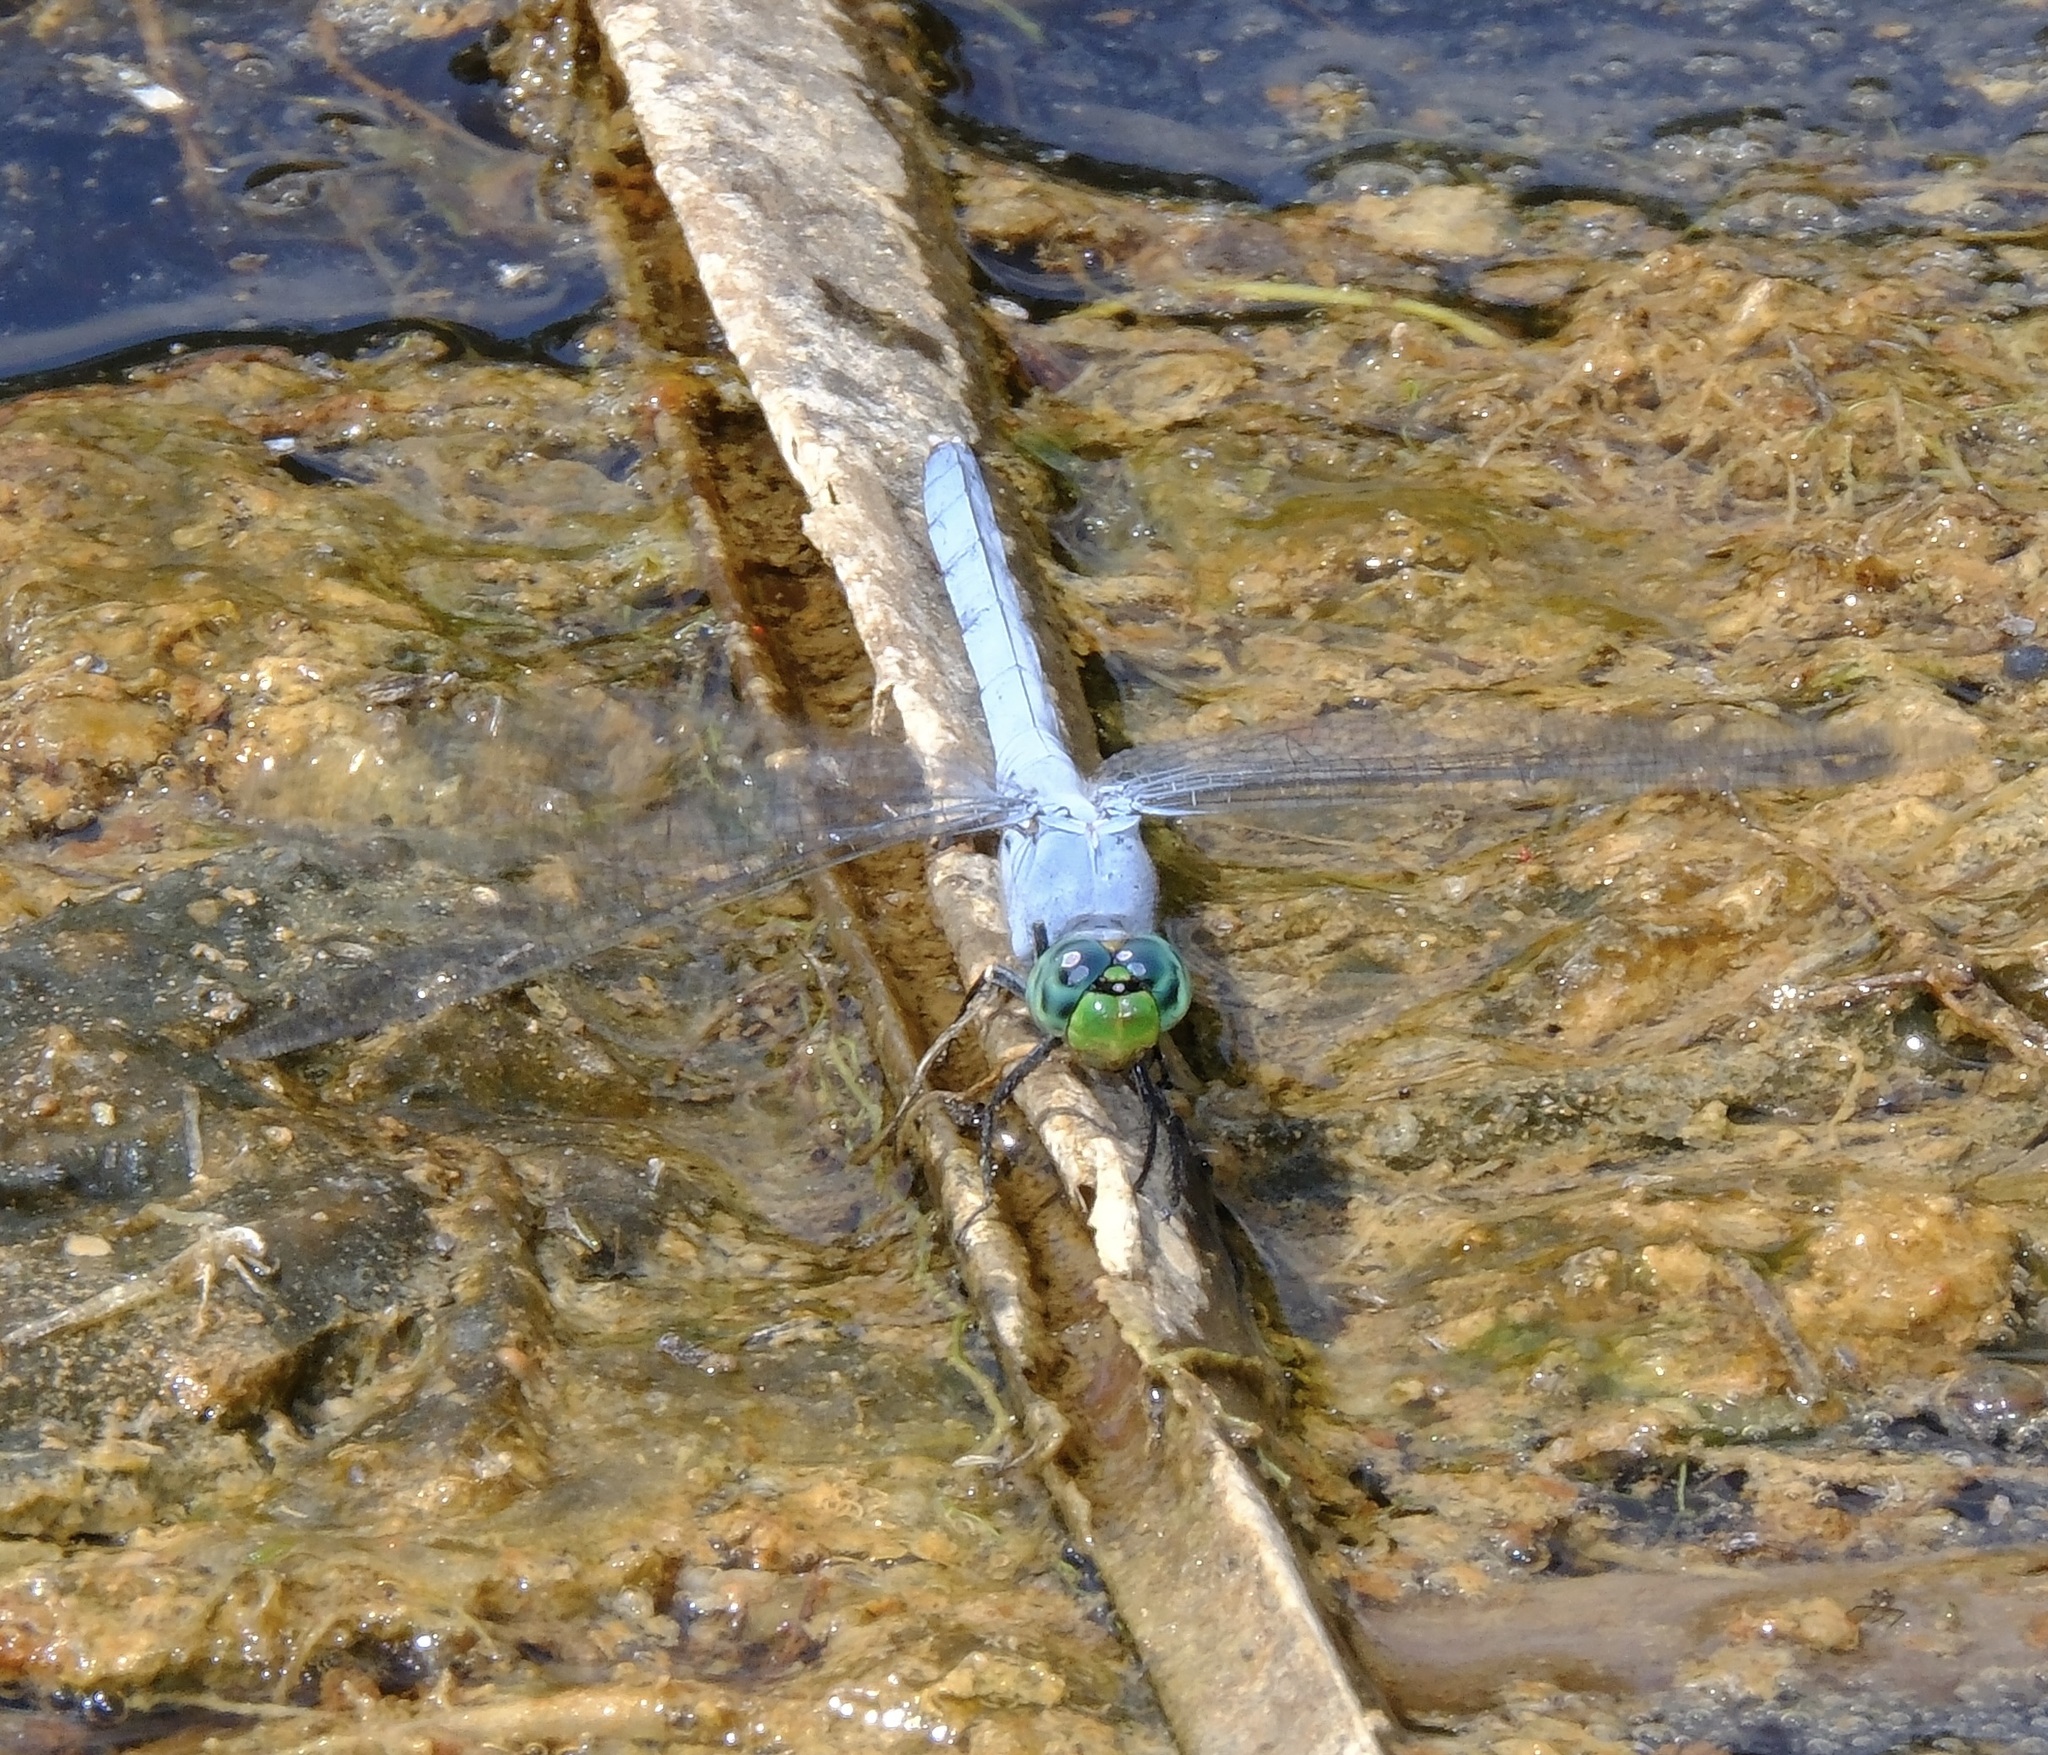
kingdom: Animalia
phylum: Arthropoda
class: Insecta
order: Odonata
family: Libellulidae
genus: Erythemis
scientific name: Erythemis simplicicollis
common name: Eastern pondhawk
